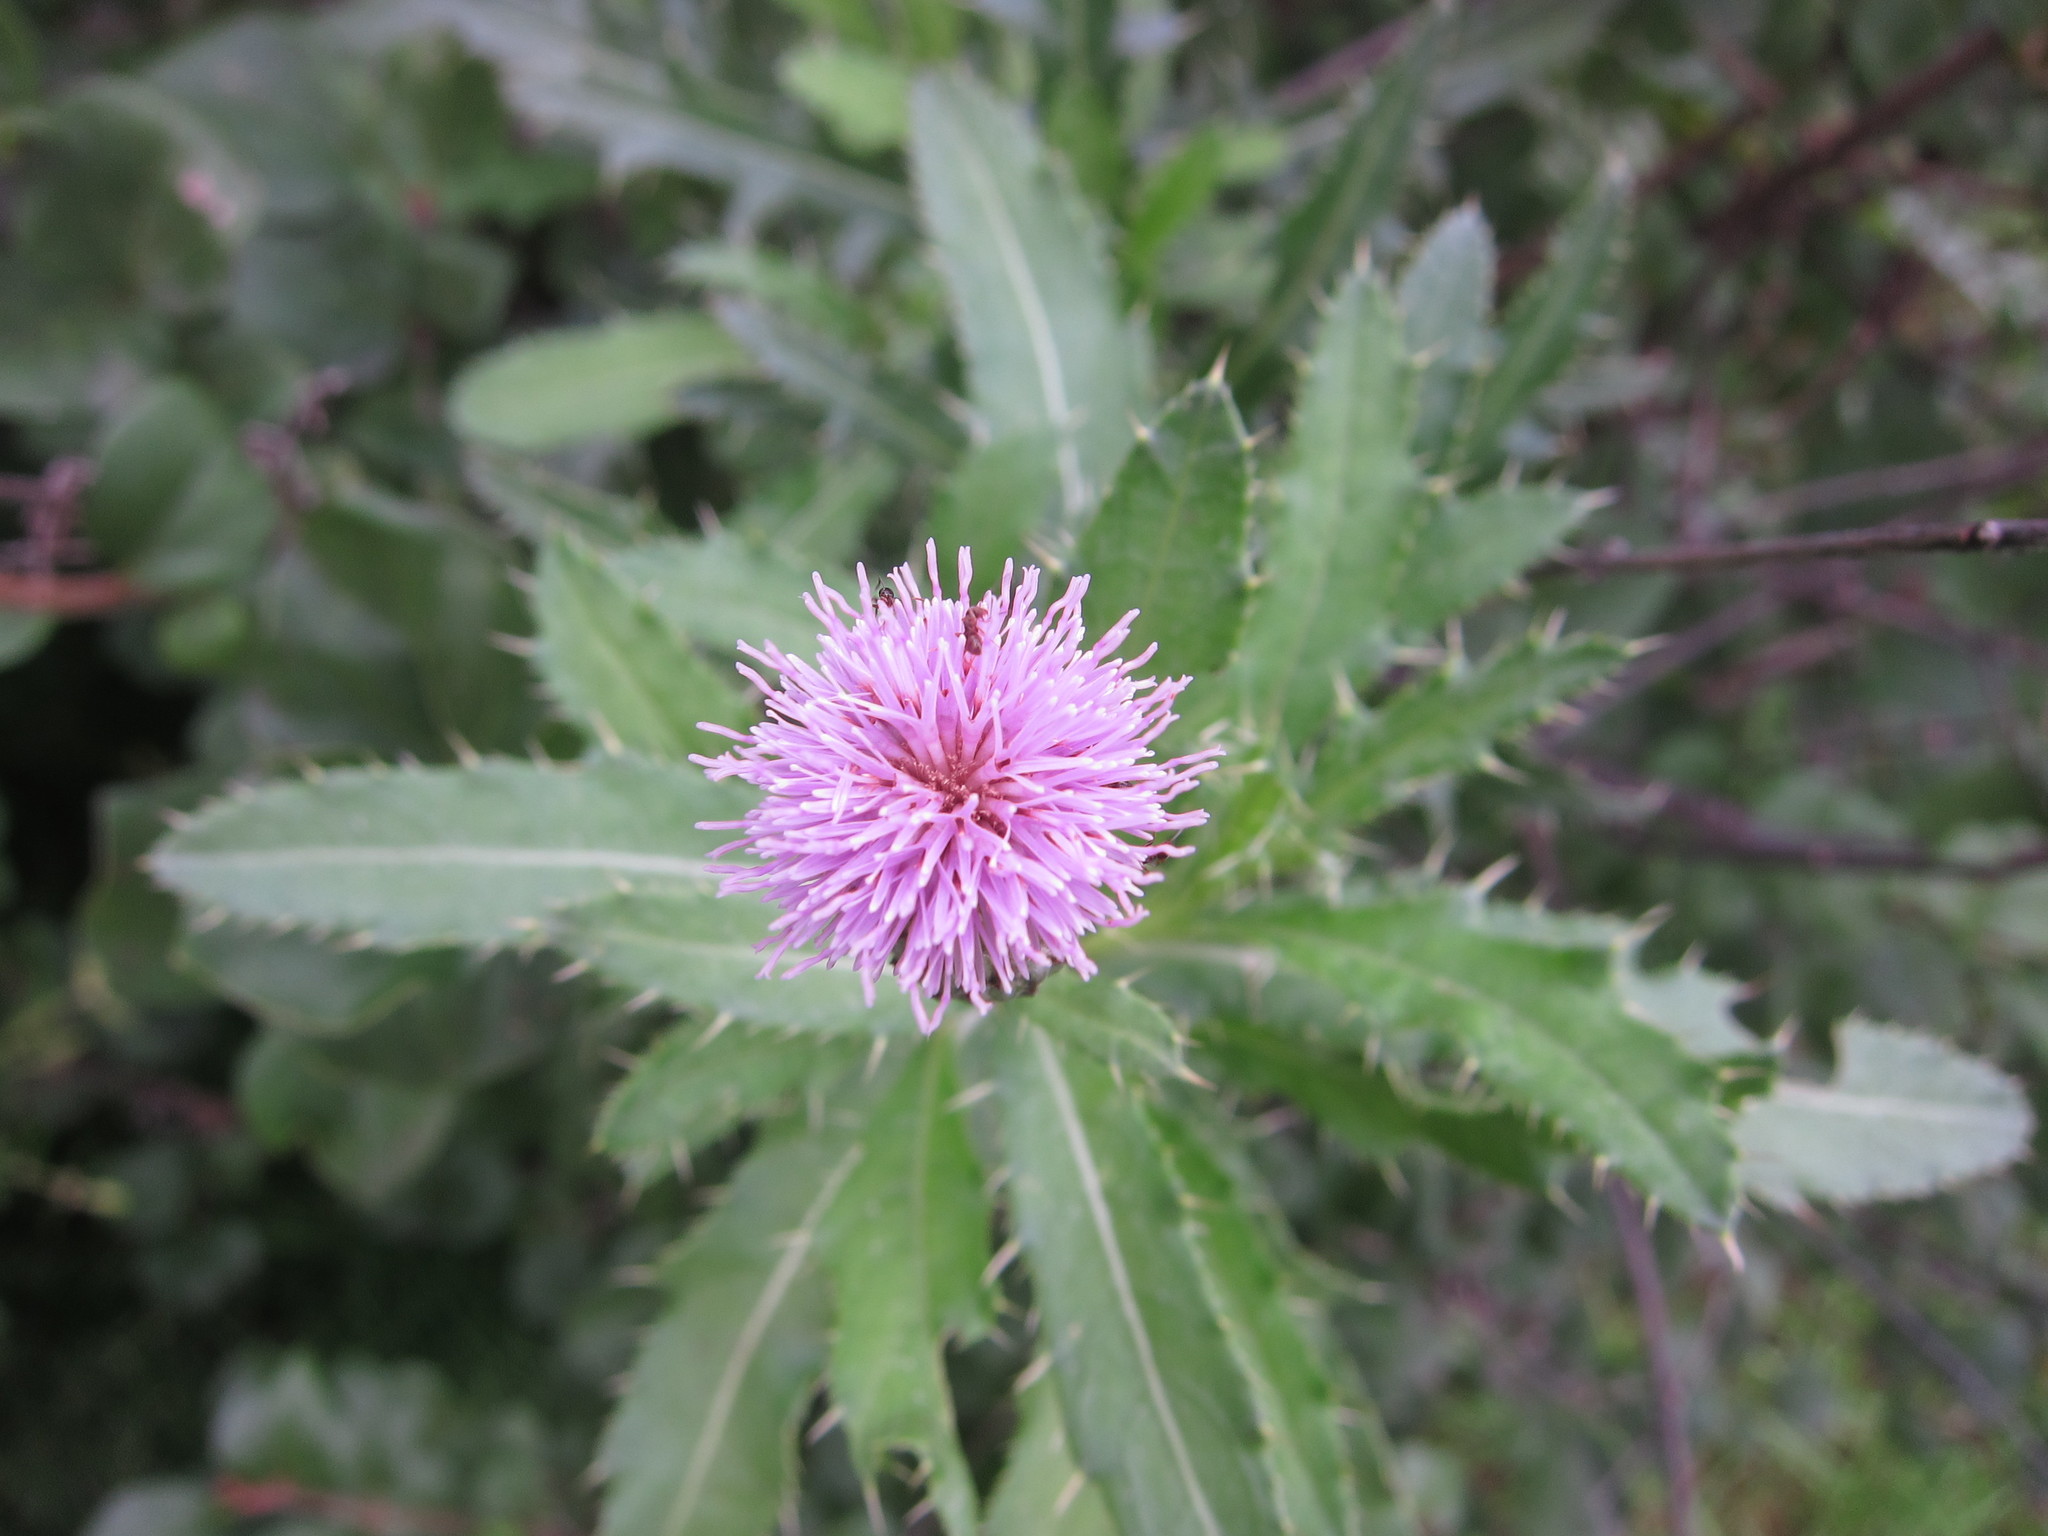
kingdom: Plantae
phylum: Tracheophyta
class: Magnoliopsida
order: Asterales
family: Asteraceae
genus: Cirsium
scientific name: Cirsium arvense
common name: Creeping thistle
